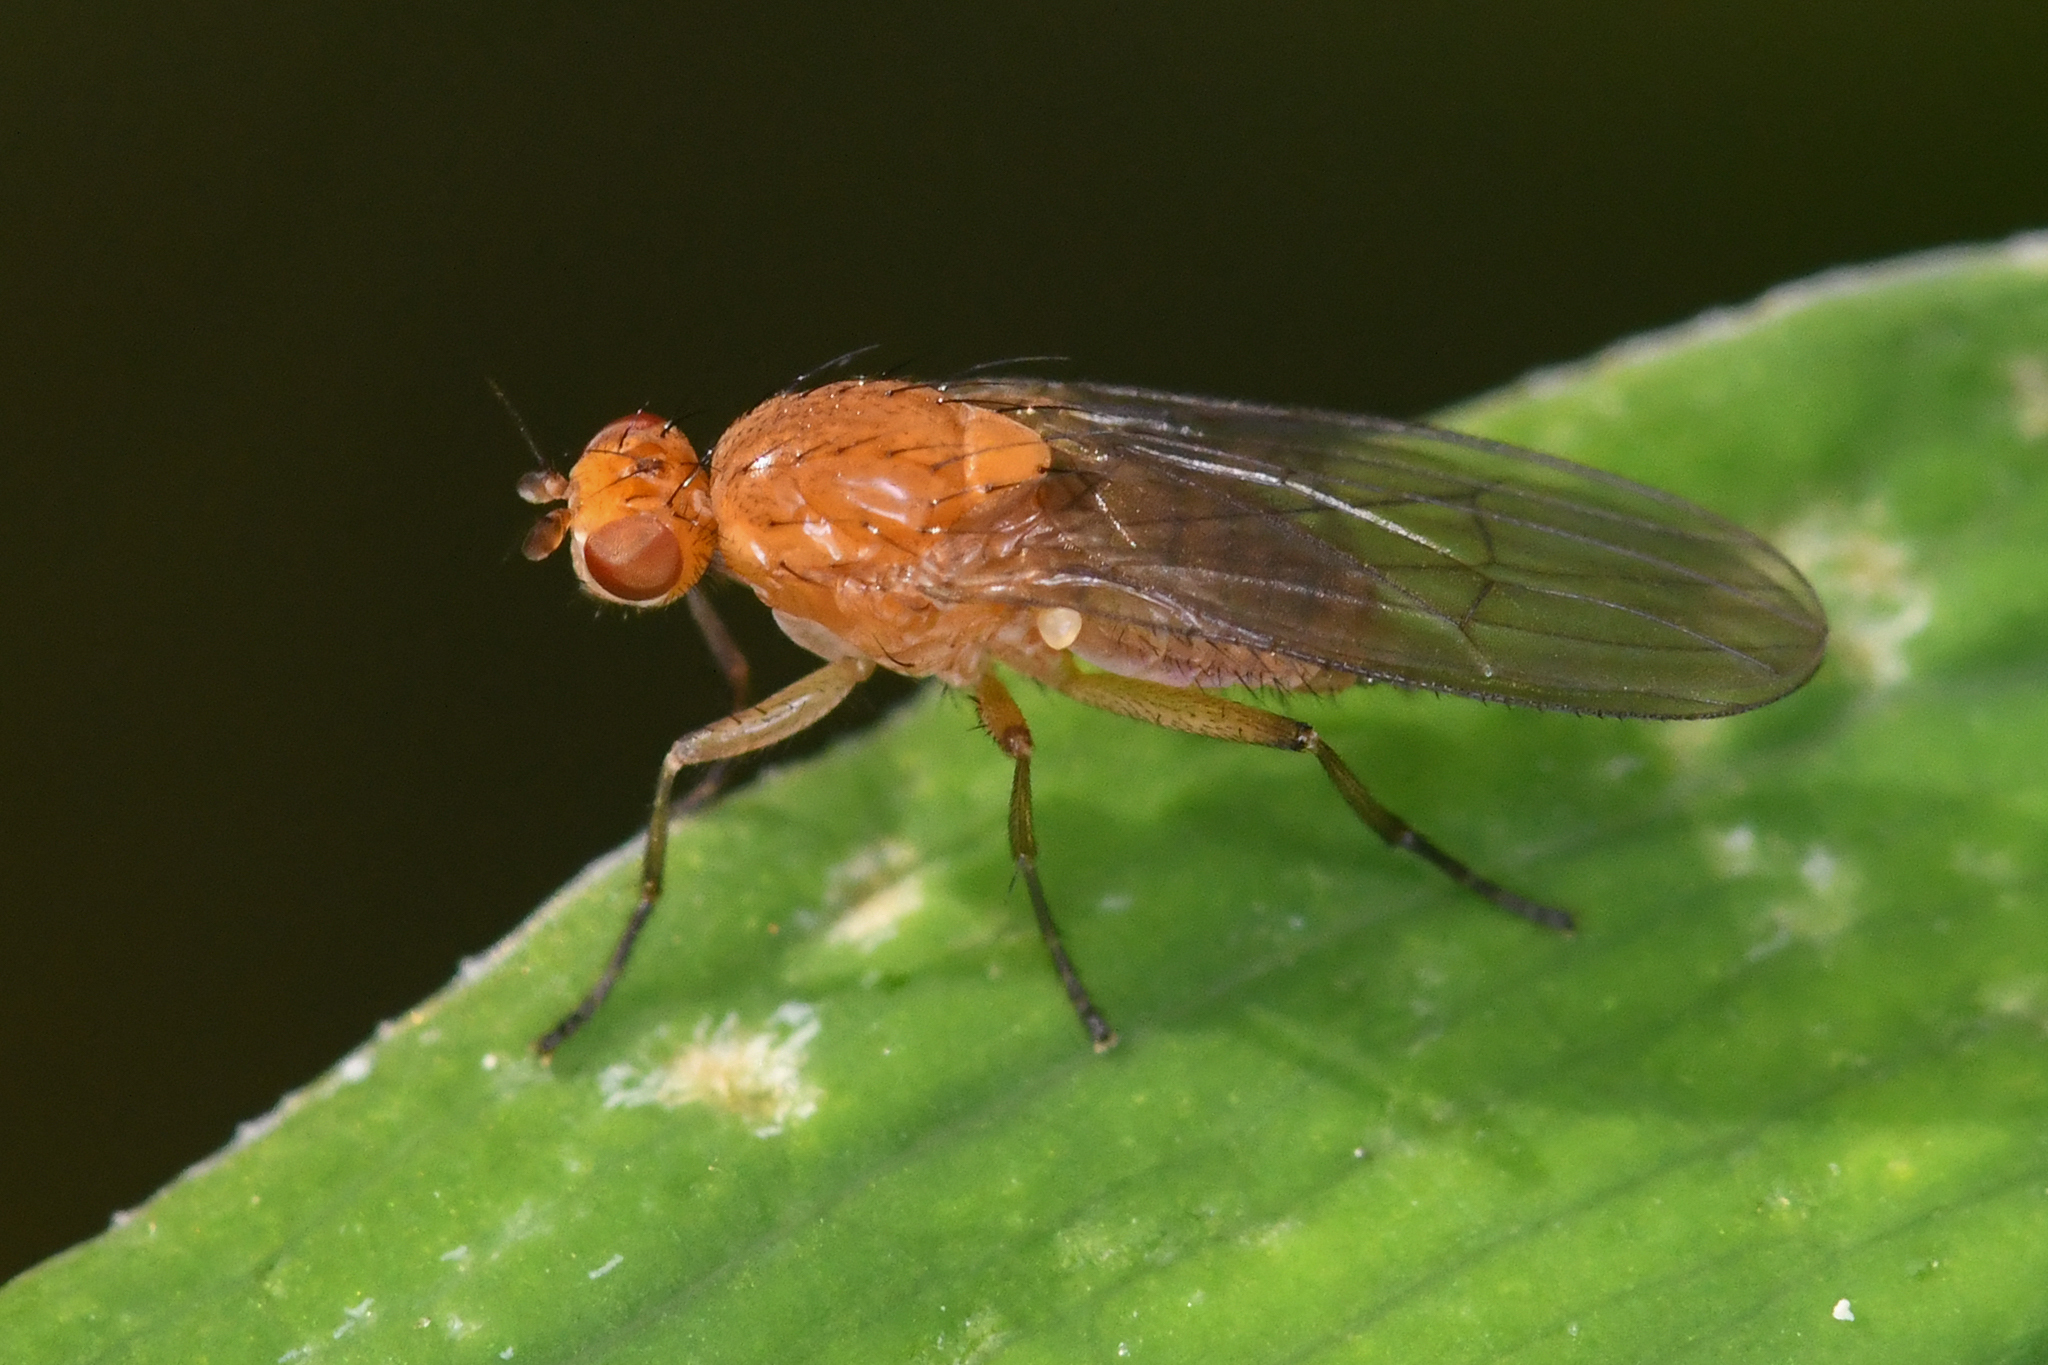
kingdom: Animalia
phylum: Arthropoda
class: Insecta
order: Diptera
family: Heleomyzidae
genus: Suillia
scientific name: Suillia convergens
